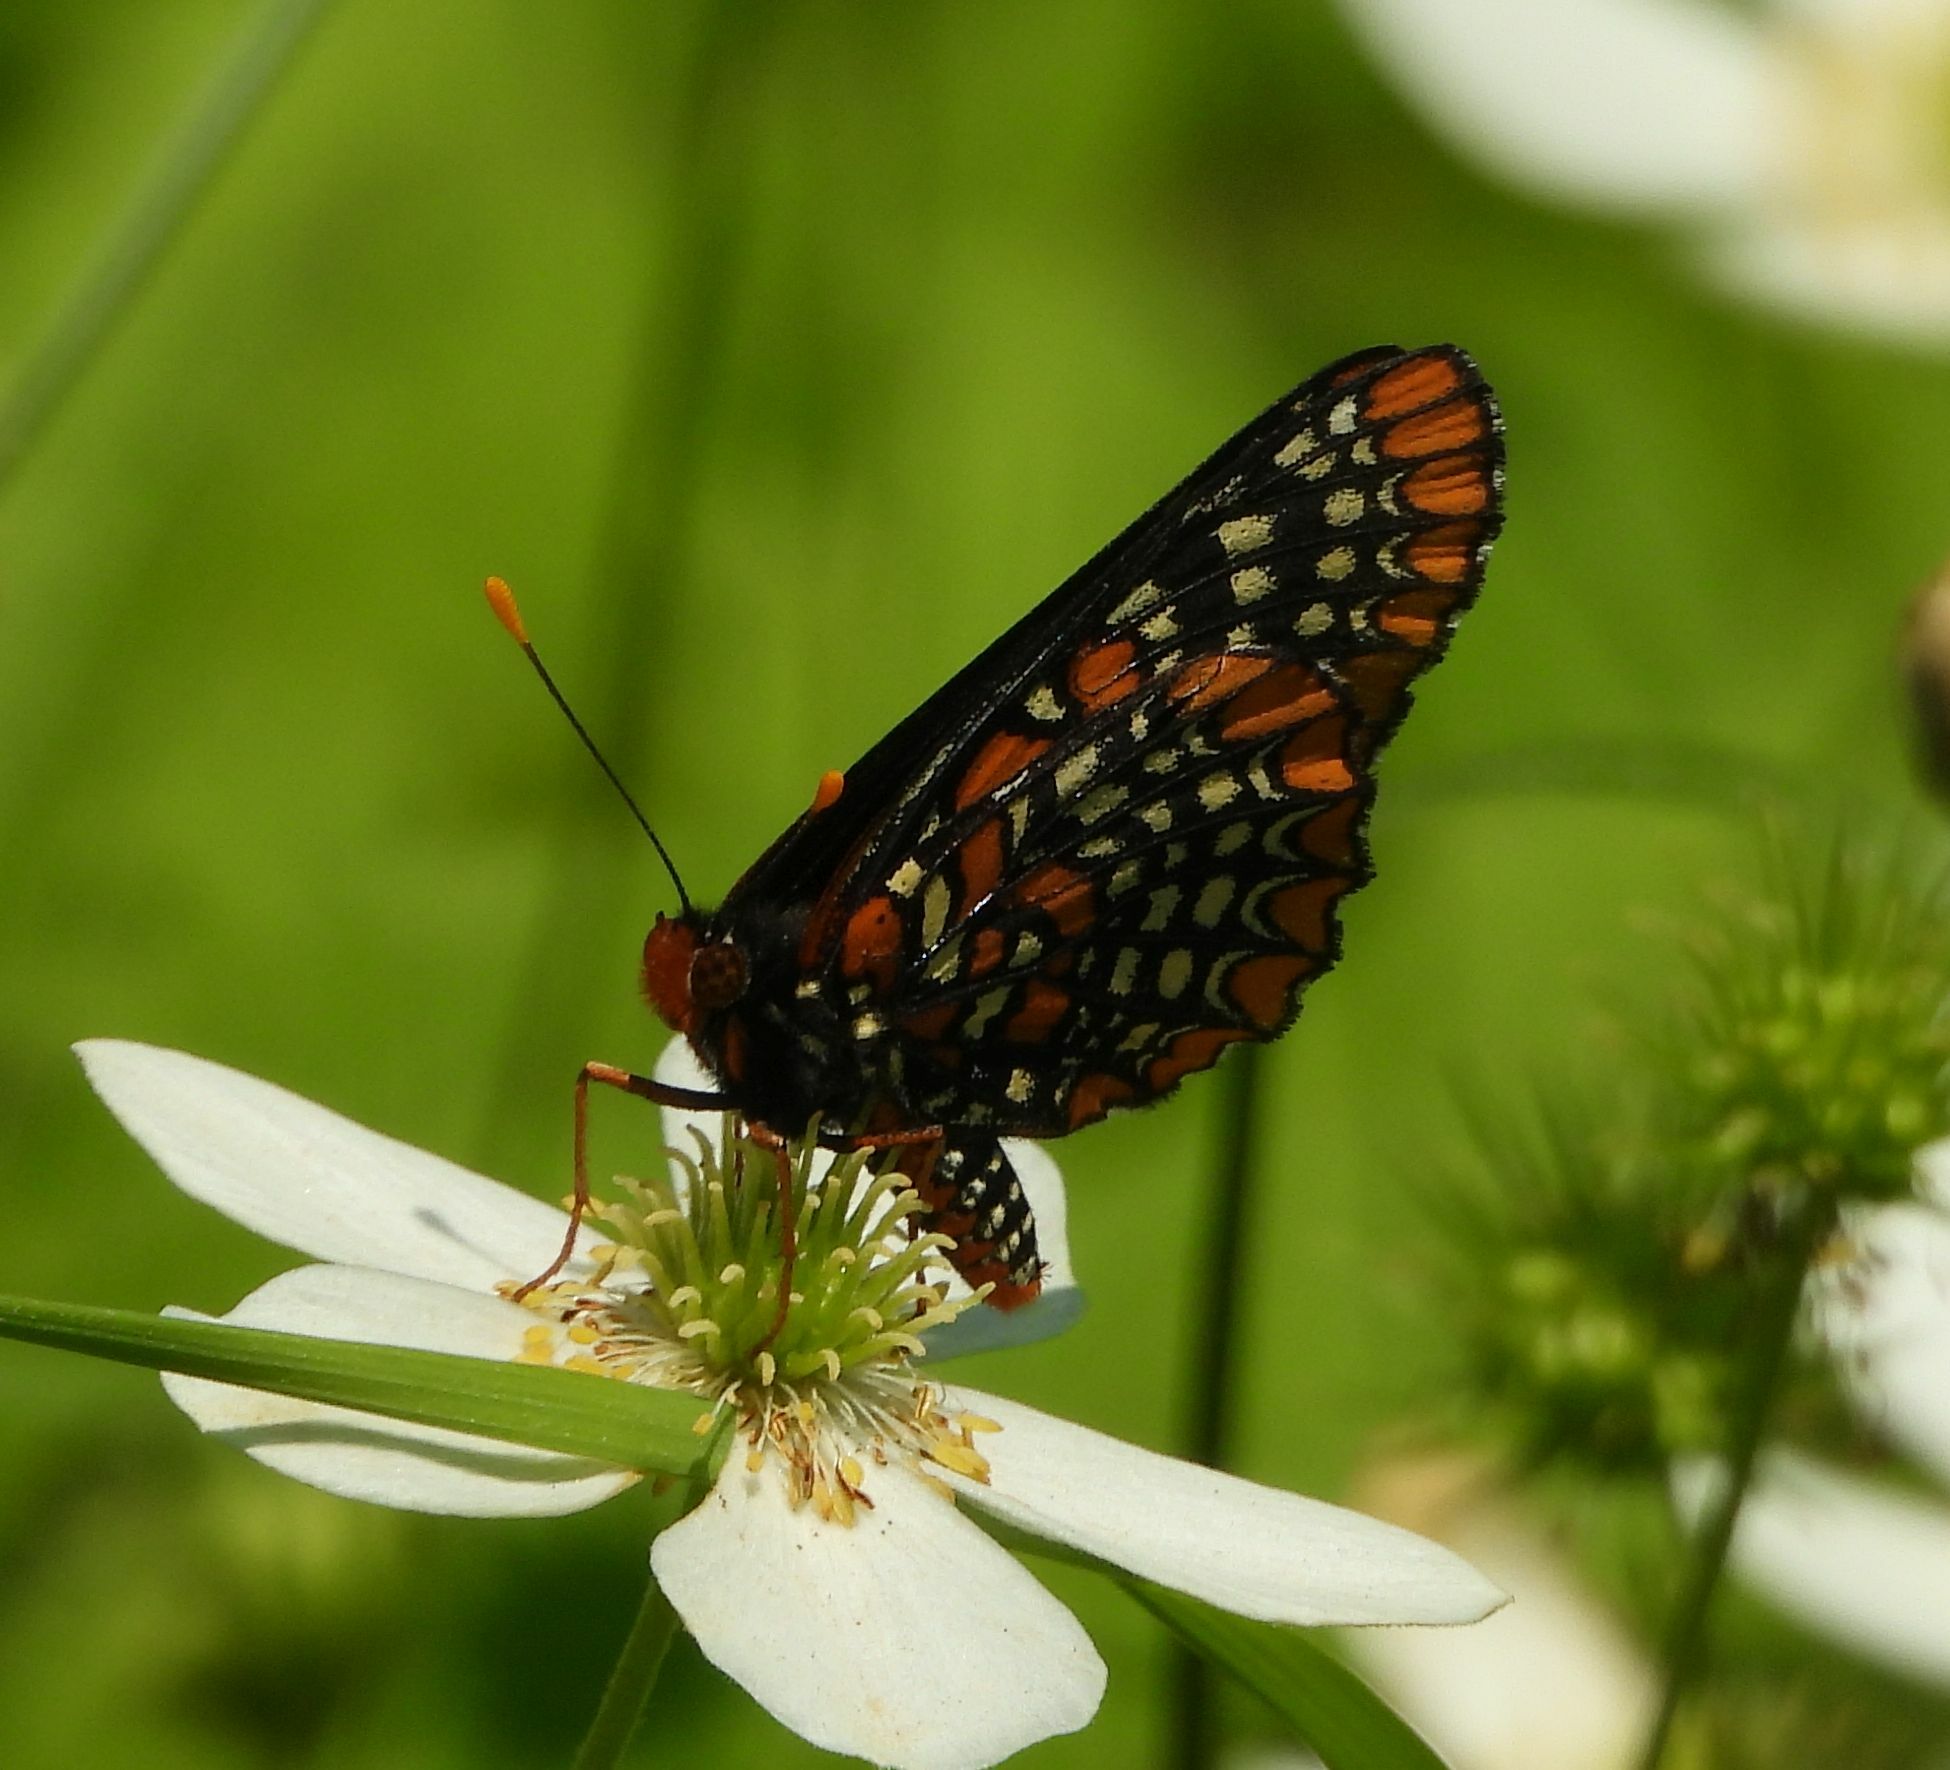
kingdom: Animalia
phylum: Arthropoda
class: Insecta
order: Lepidoptera
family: Nymphalidae
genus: Euphydryas
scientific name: Euphydryas phaeton
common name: Baltimore checkerspot
